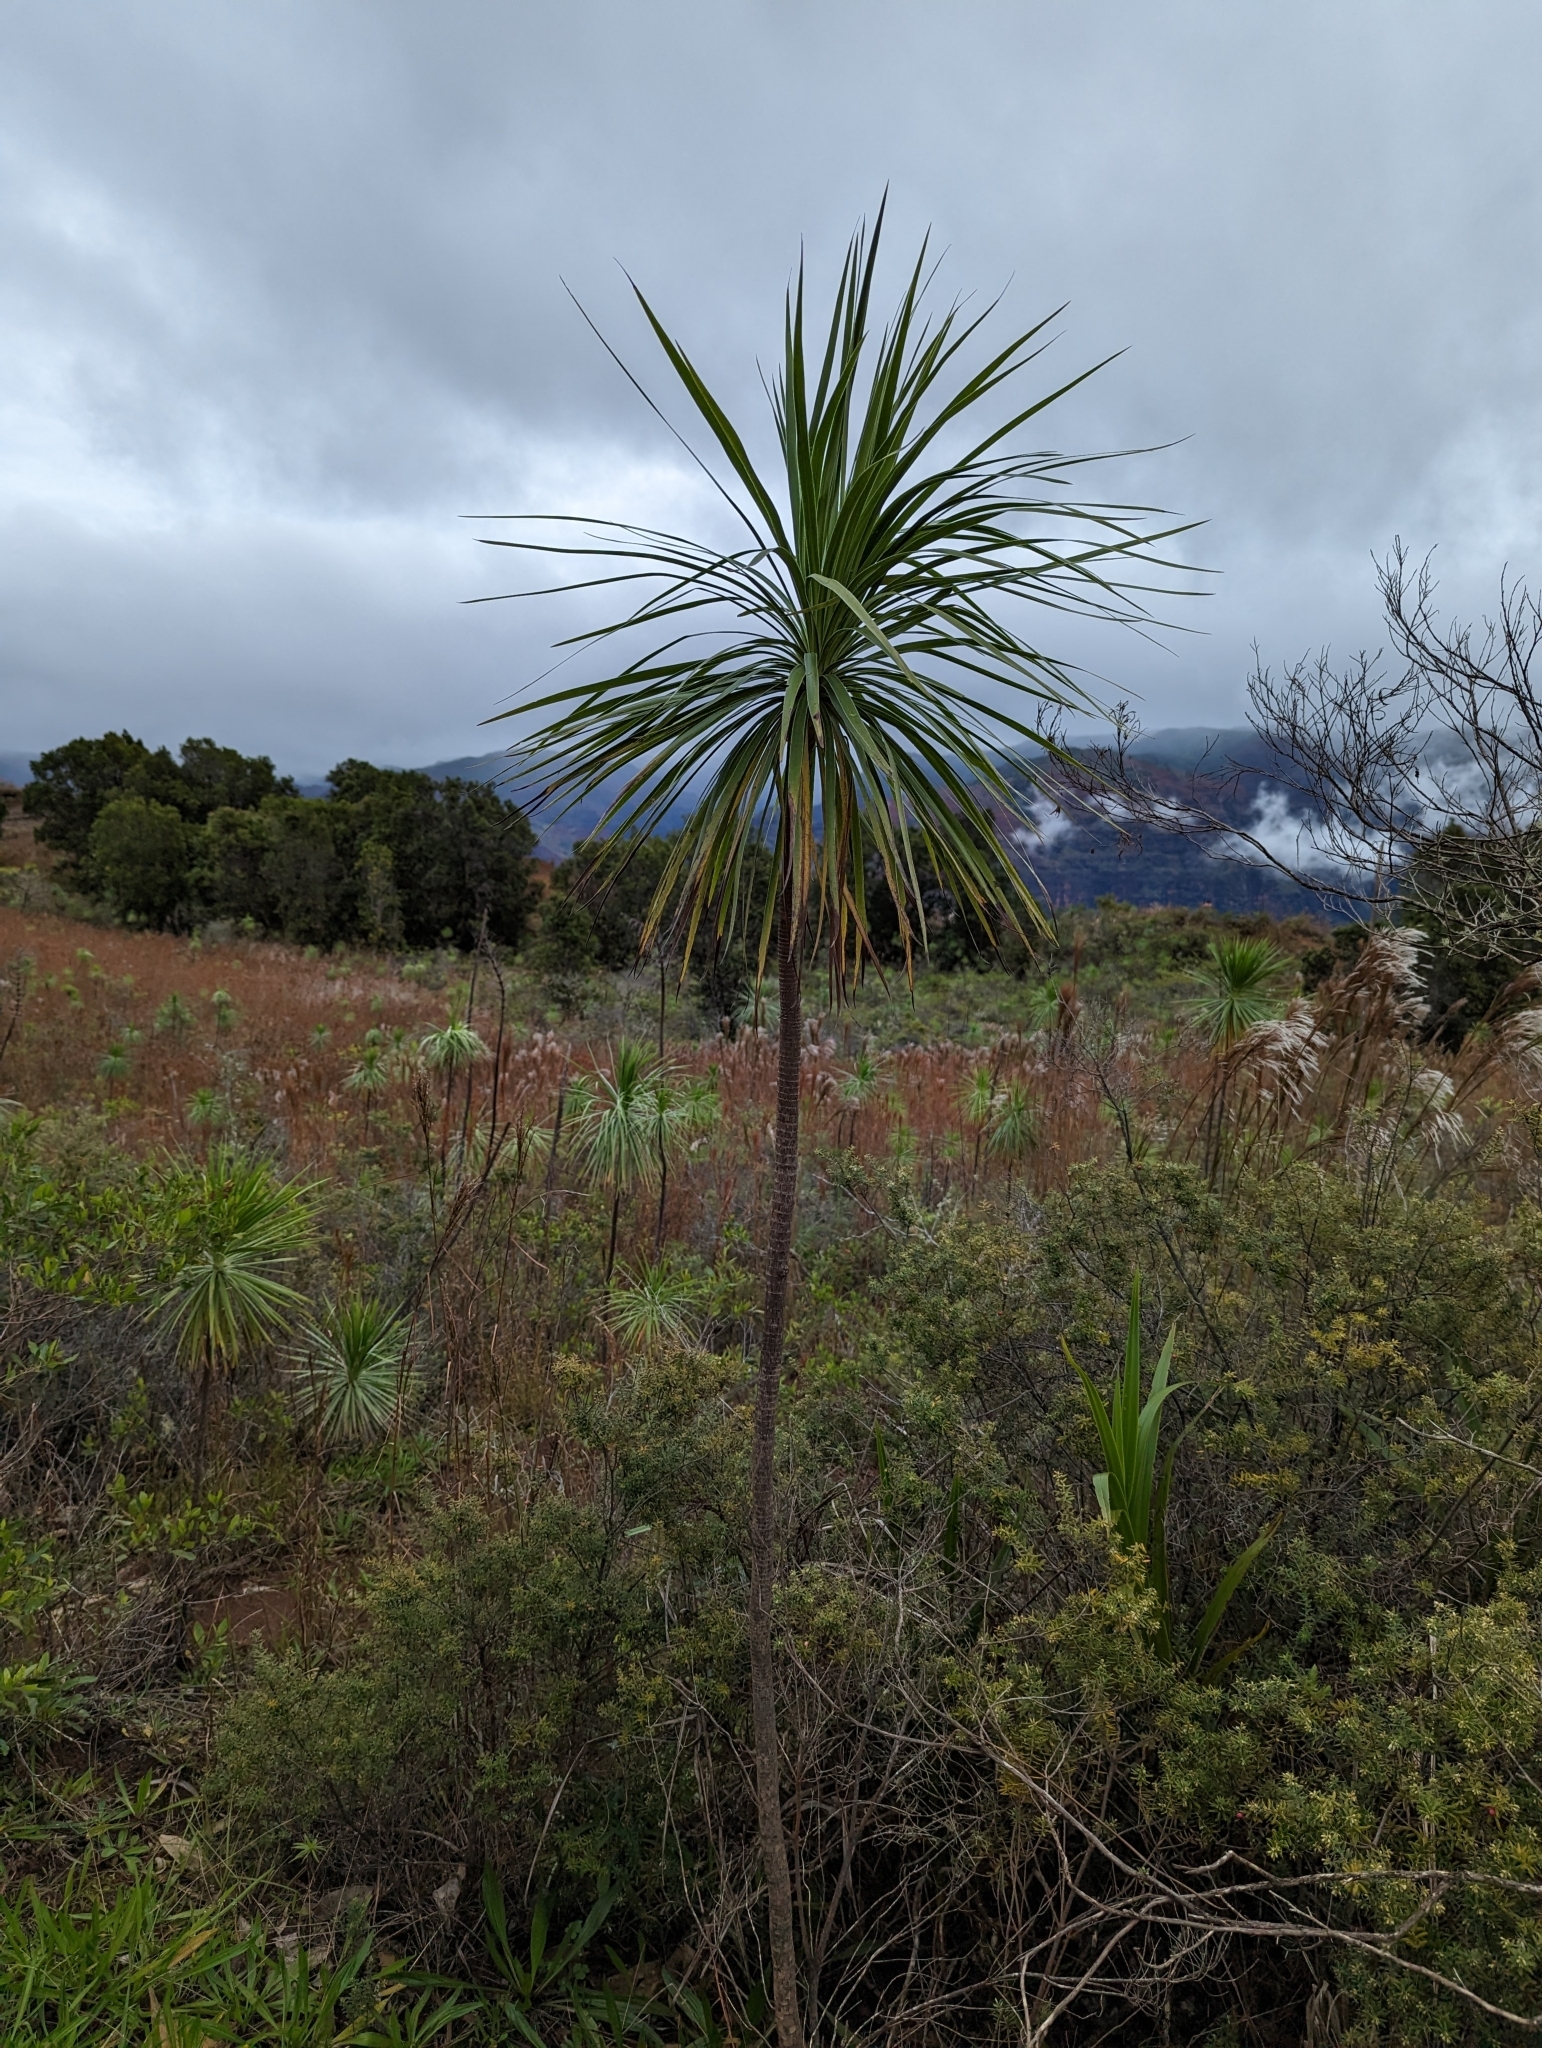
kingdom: Plantae
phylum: Tracheophyta
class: Magnoliopsida
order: Asterales
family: Asteraceae
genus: Wilkesia
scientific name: Wilkesia gymnoxiphium
